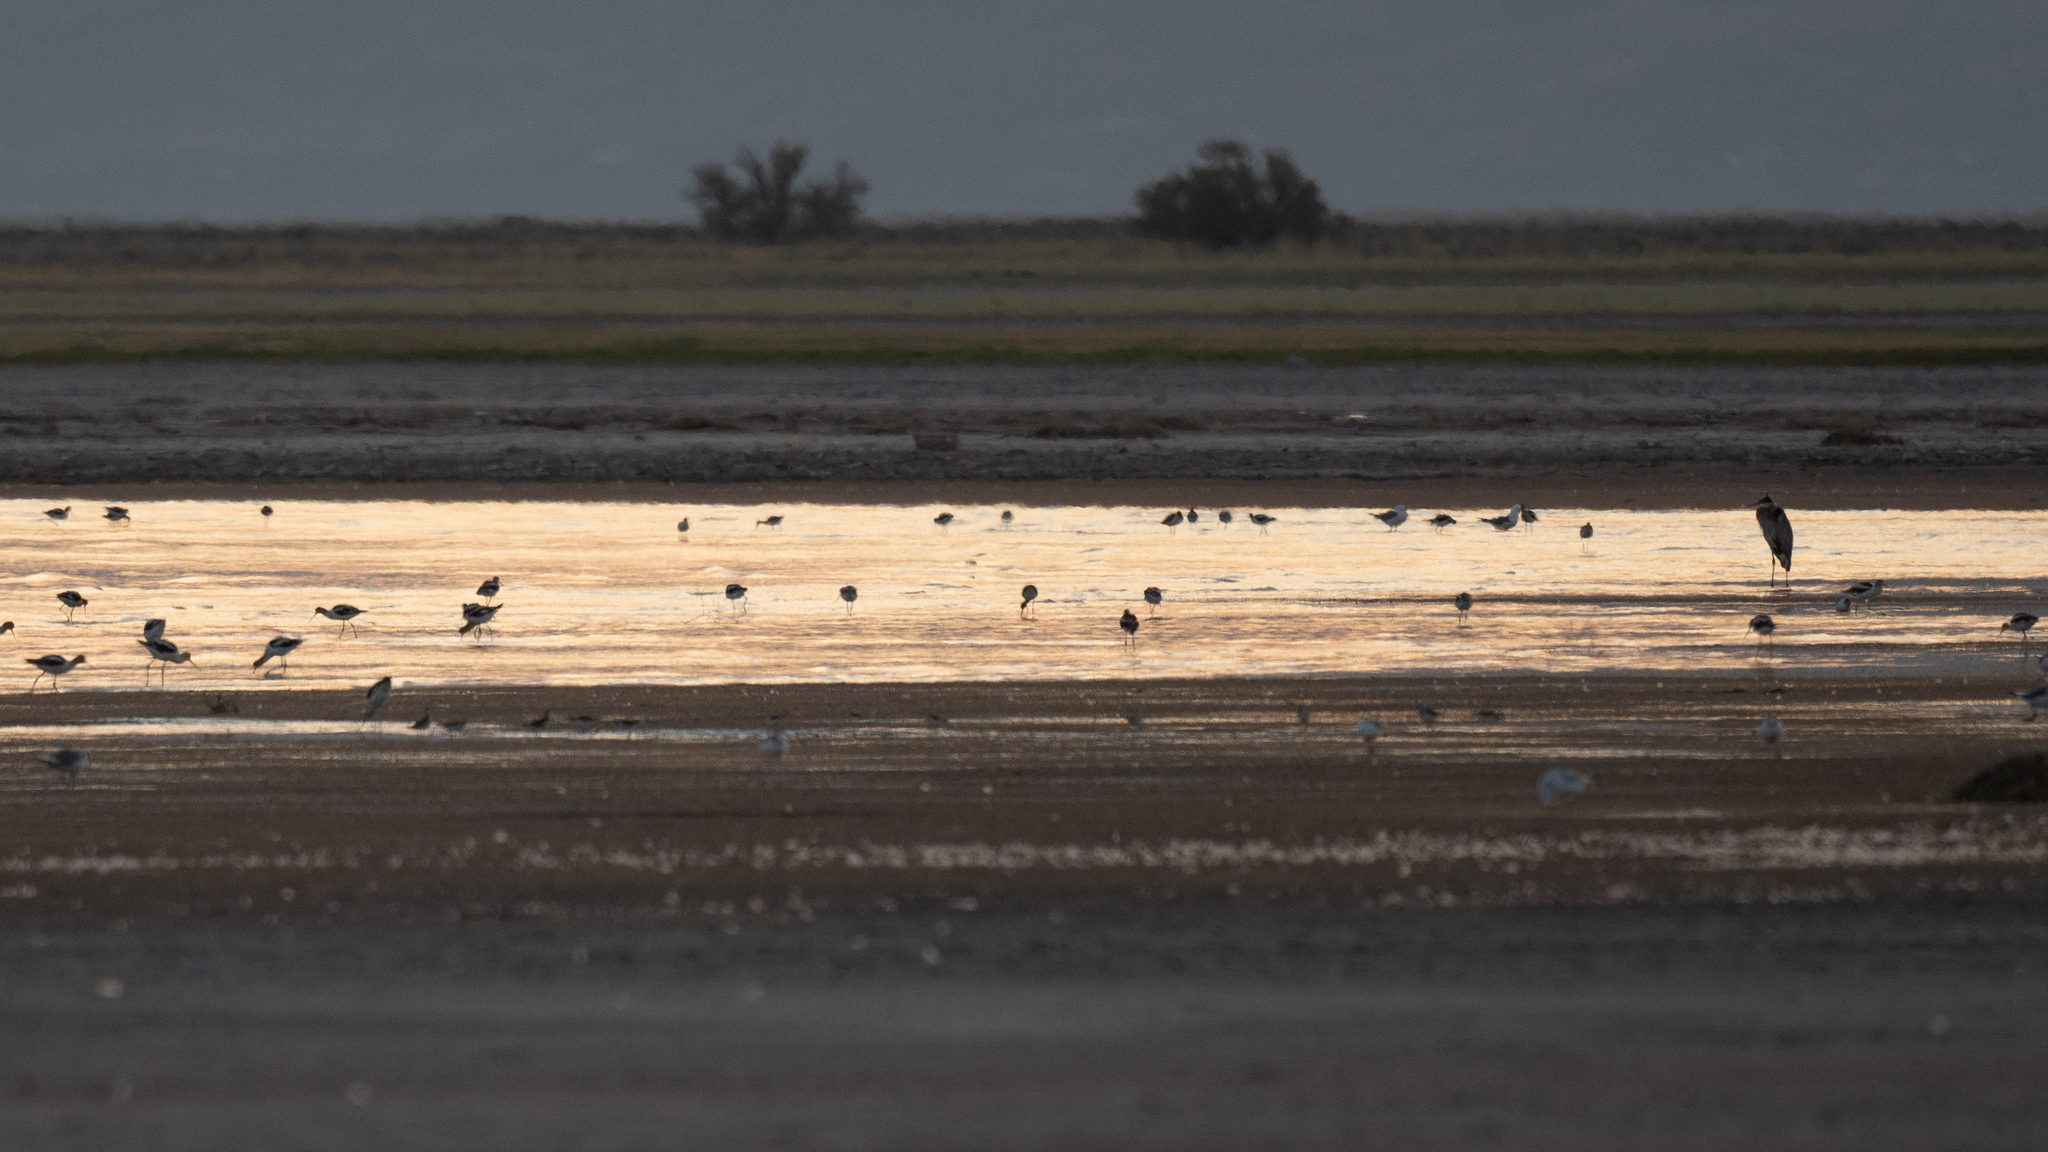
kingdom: Animalia
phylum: Chordata
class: Aves
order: Pelecaniformes
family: Ardeidae
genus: Ardea
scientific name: Ardea herodias
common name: Great blue heron
